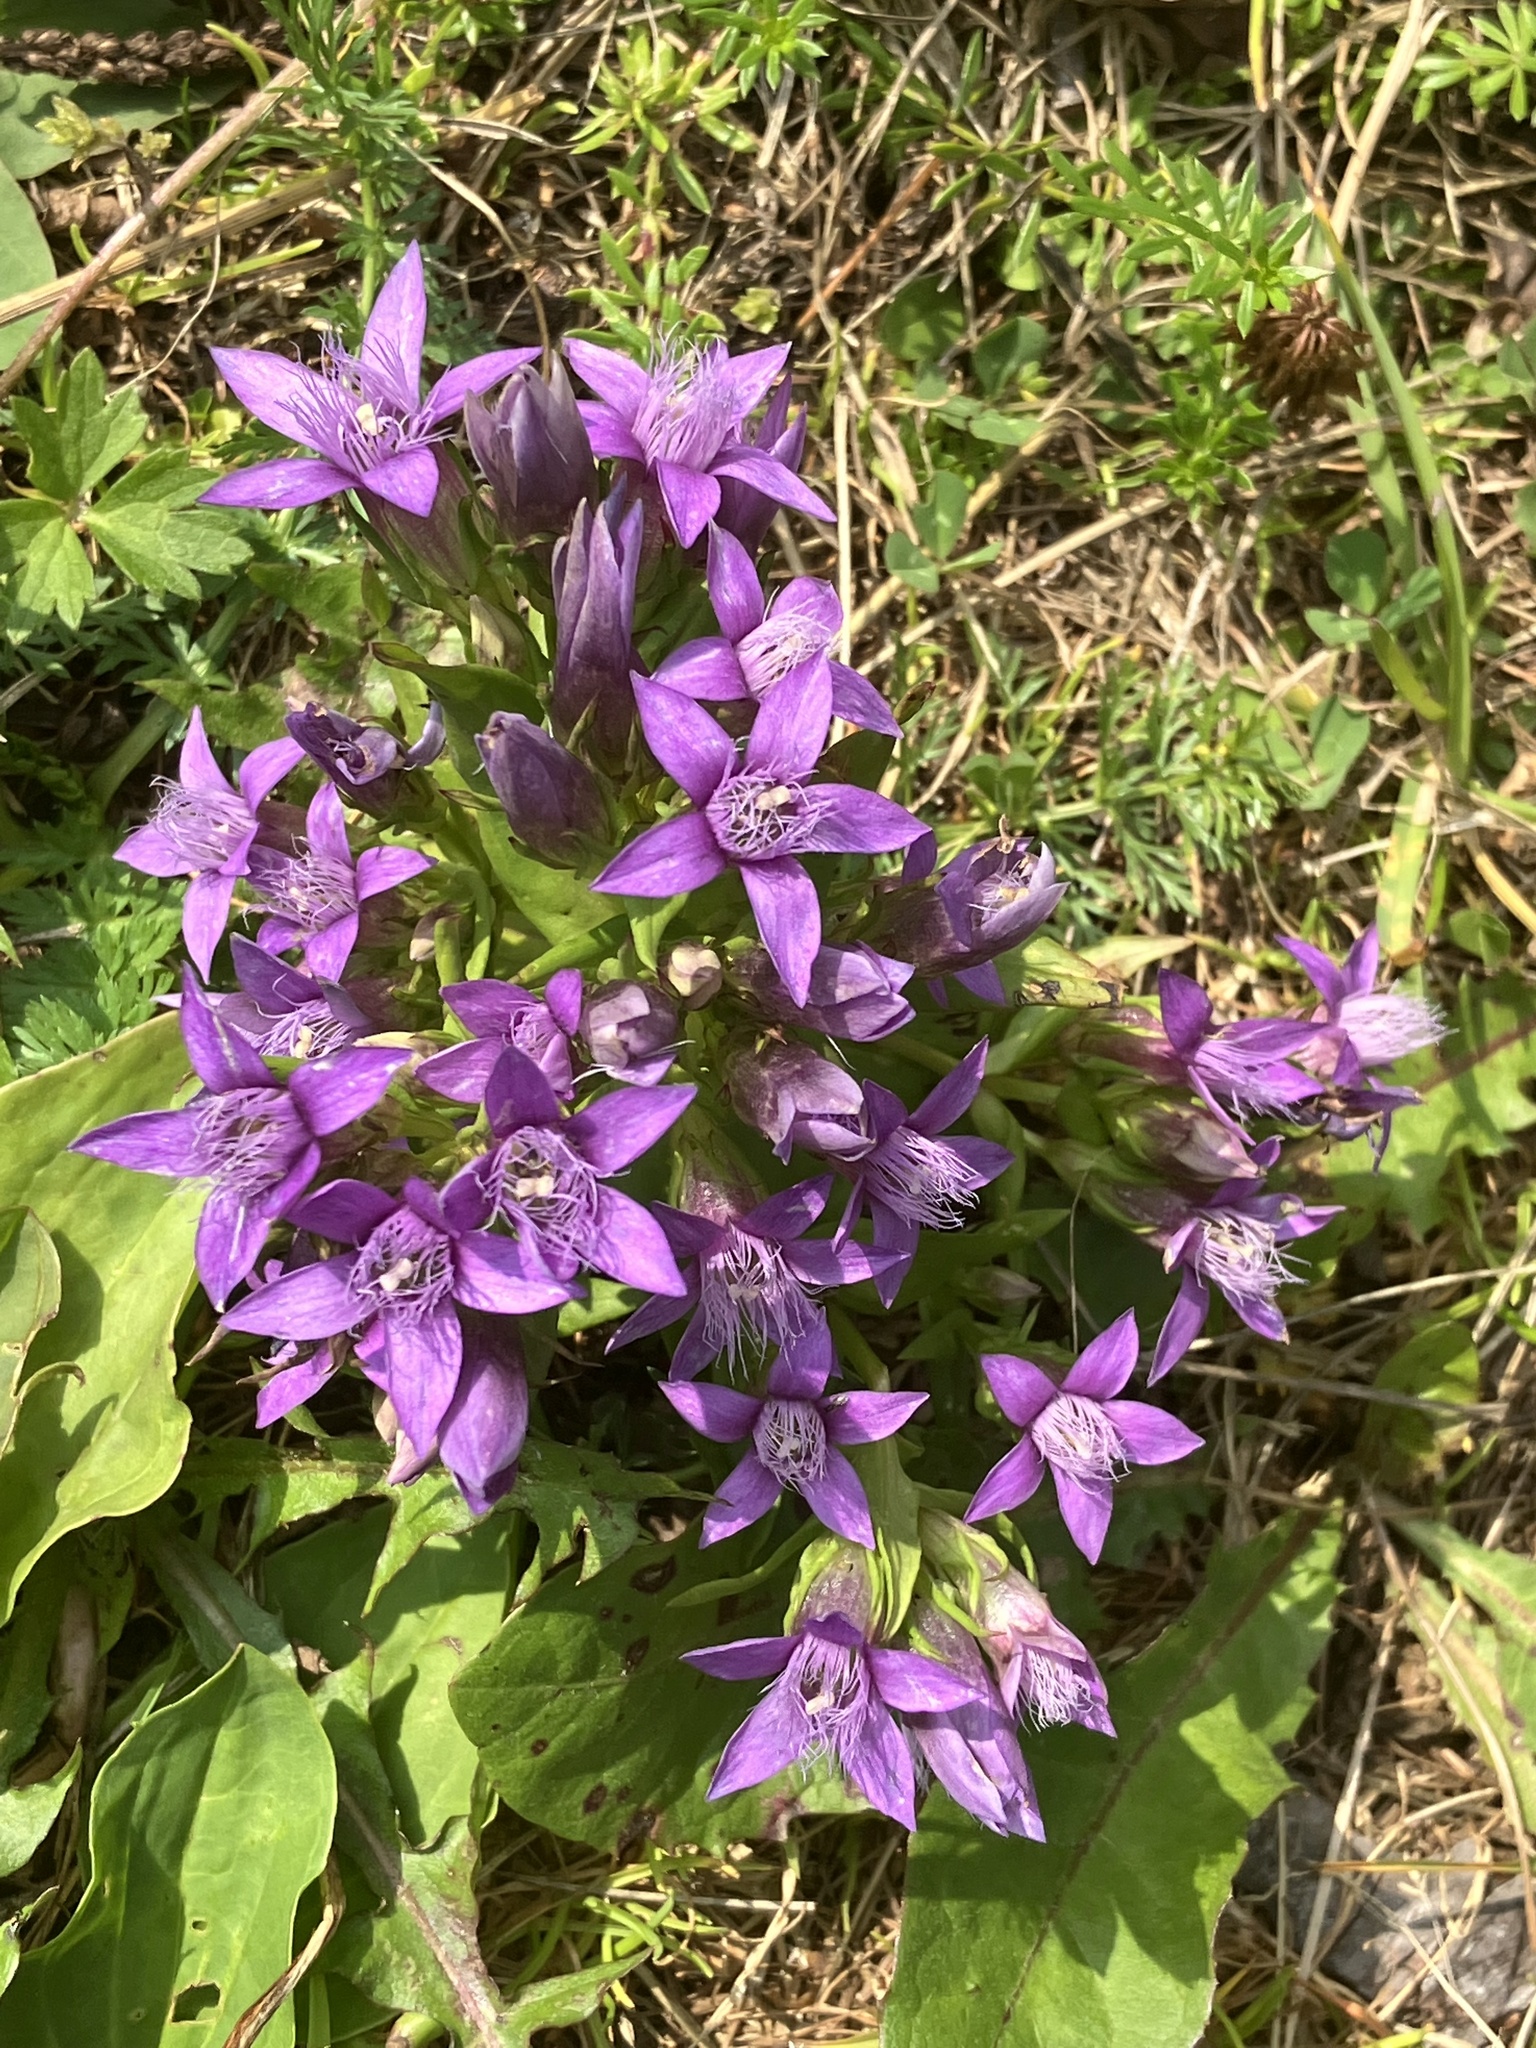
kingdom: Plantae
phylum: Tracheophyta
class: Magnoliopsida
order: Gentianales
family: Gentianaceae
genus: Gentianella
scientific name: Gentianella anisodonta
